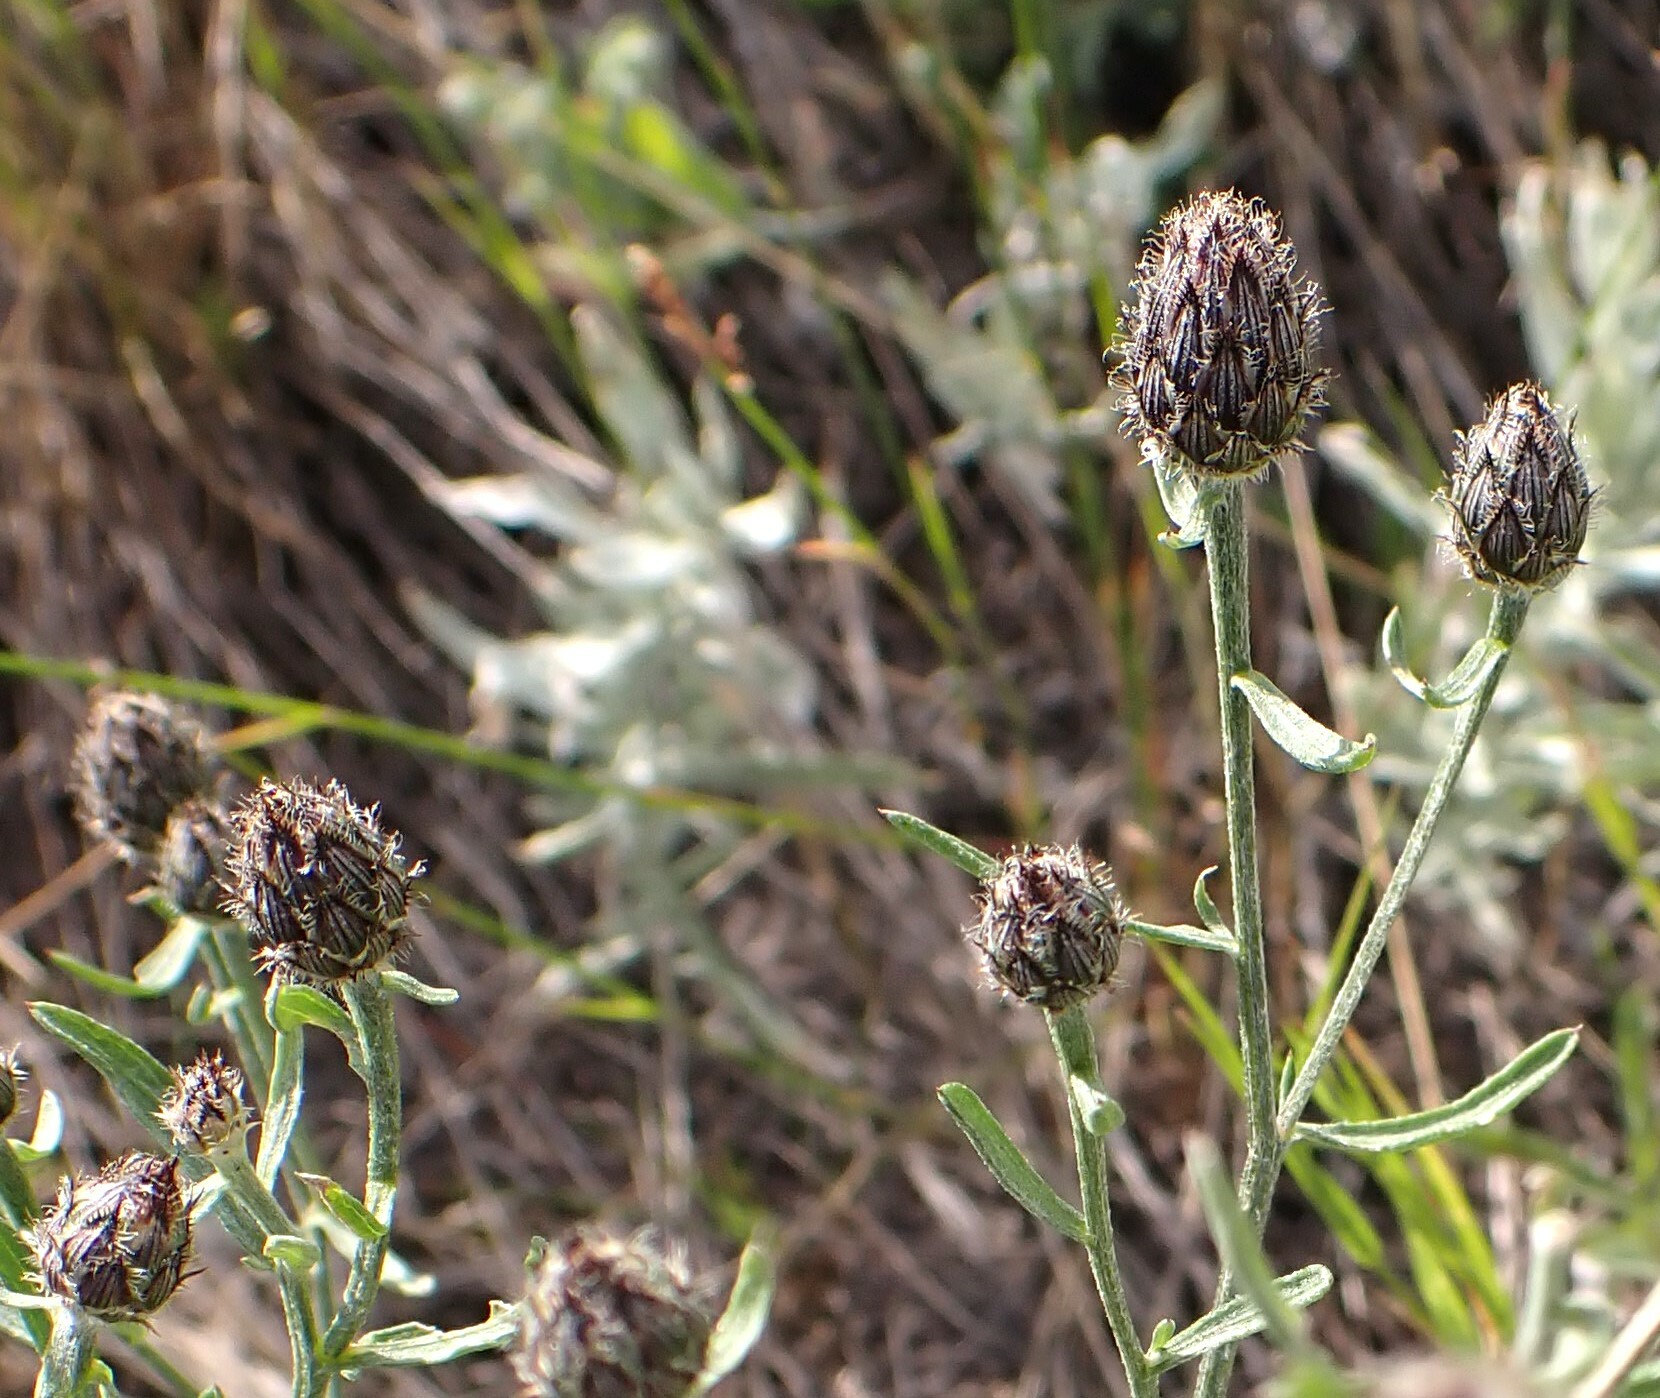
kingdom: Plantae
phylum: Tracheophyta
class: Magnoliopsida
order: Asterales
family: Asteraceae
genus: Centaurea
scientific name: Centaurea stoebe
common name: Spotted knapweed
